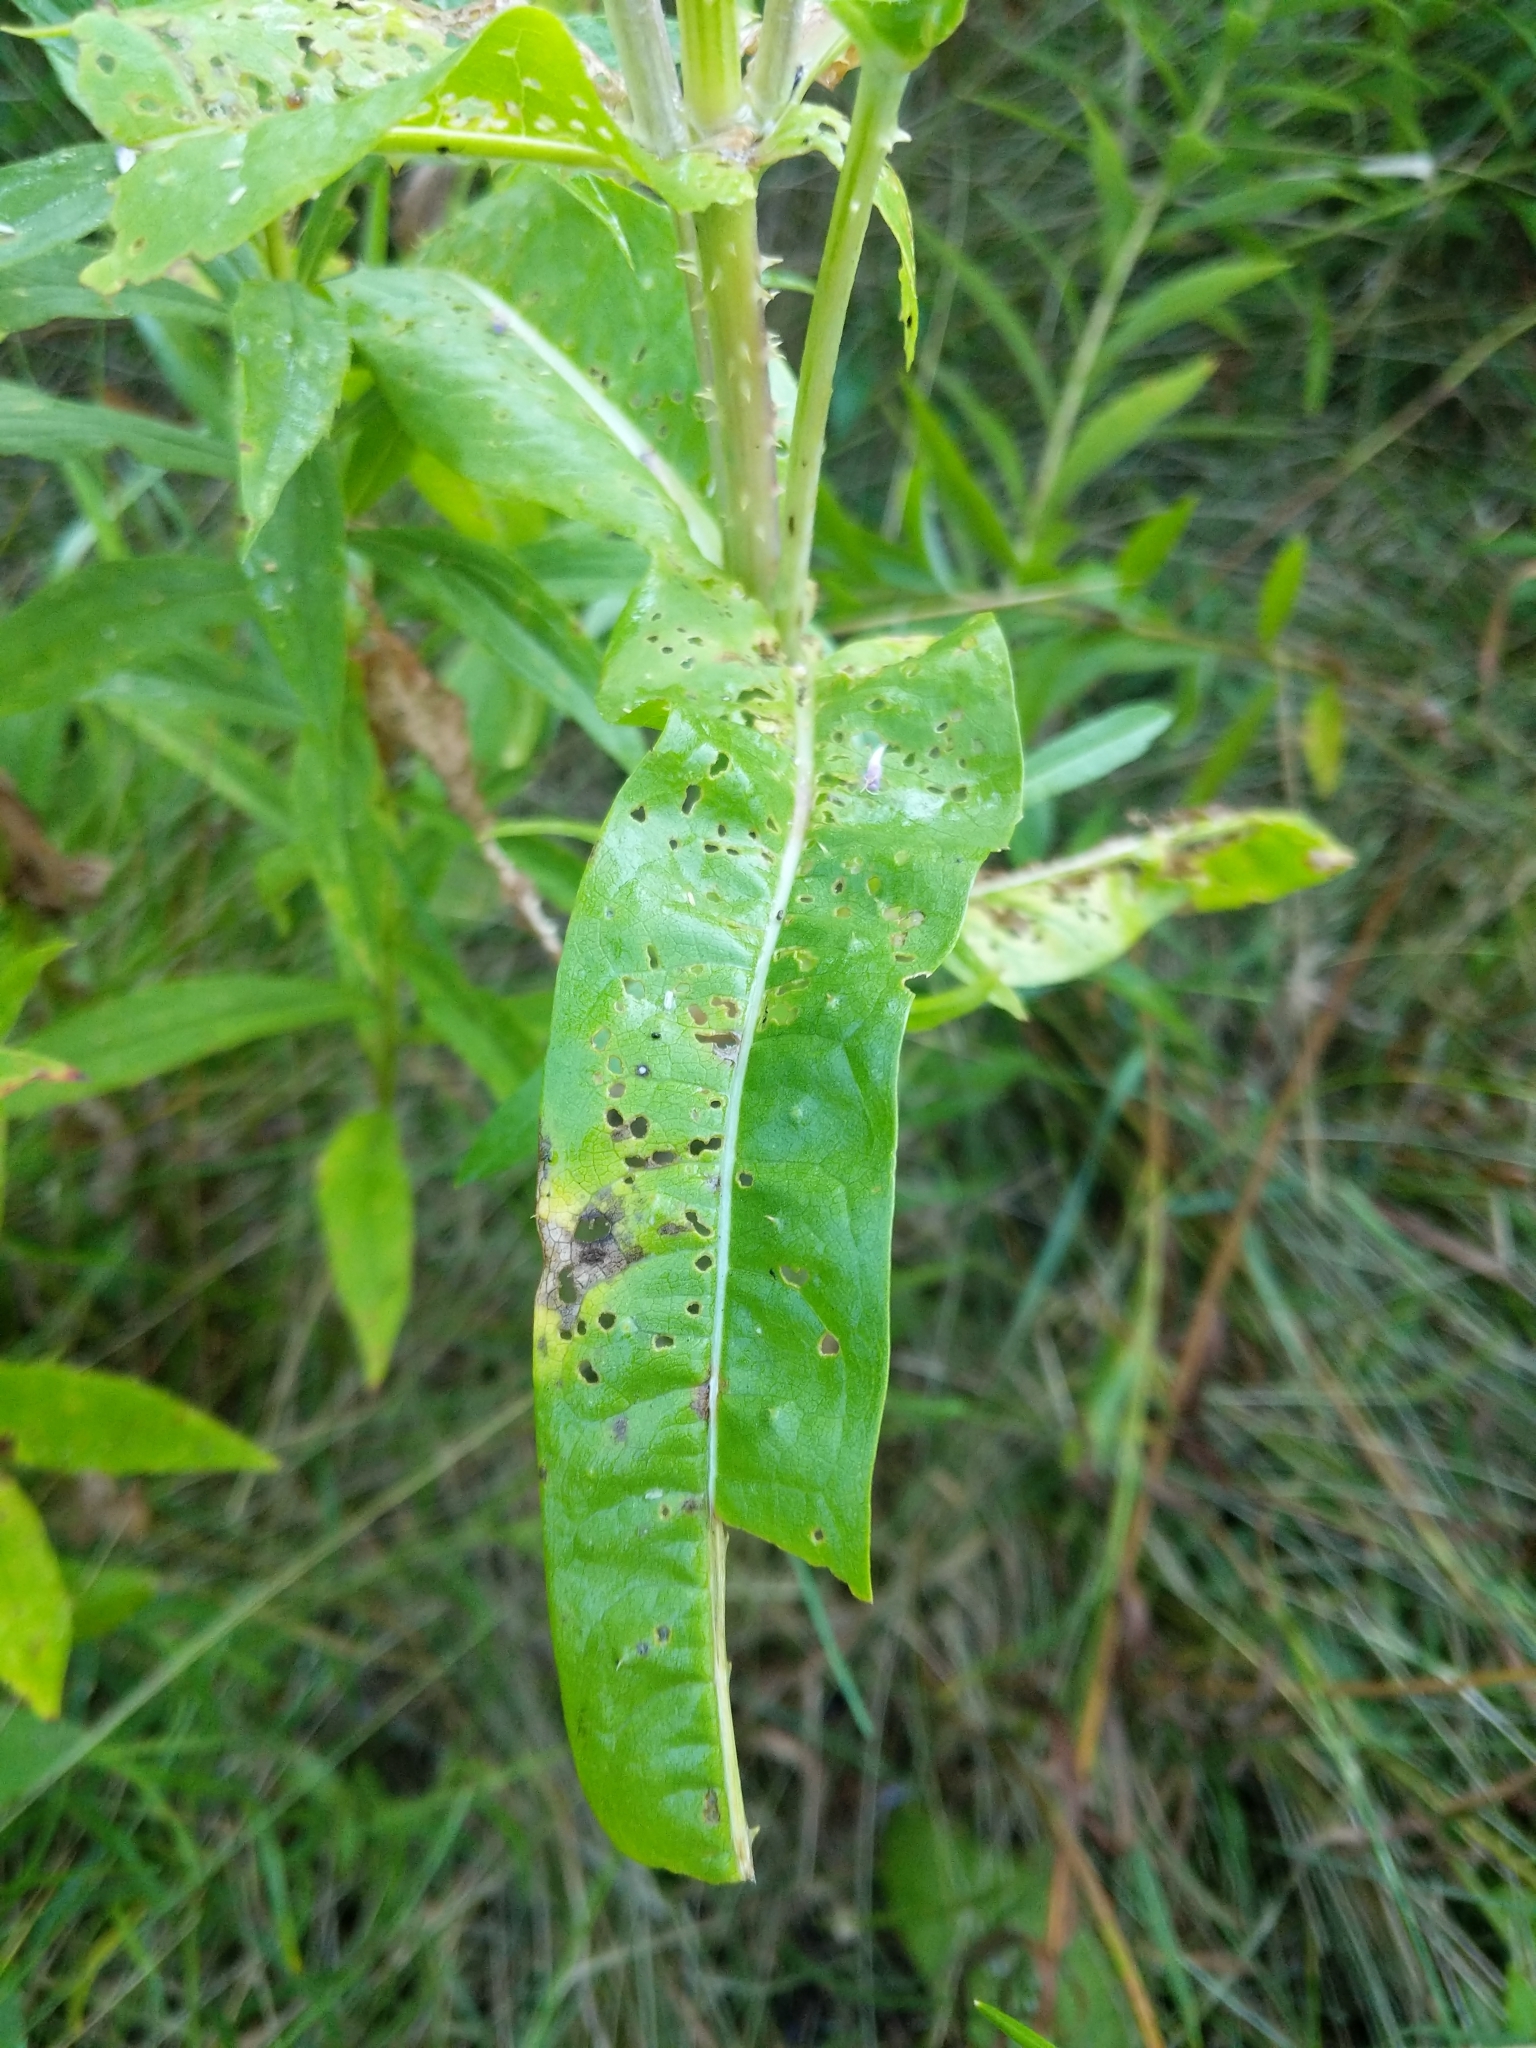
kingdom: Plantae
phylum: Tracheophyta
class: Magnoliopsida
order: Dipsacales
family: Caprifoliaceae
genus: Dipsacus
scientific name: Dipsacus fullonum
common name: Teasel
